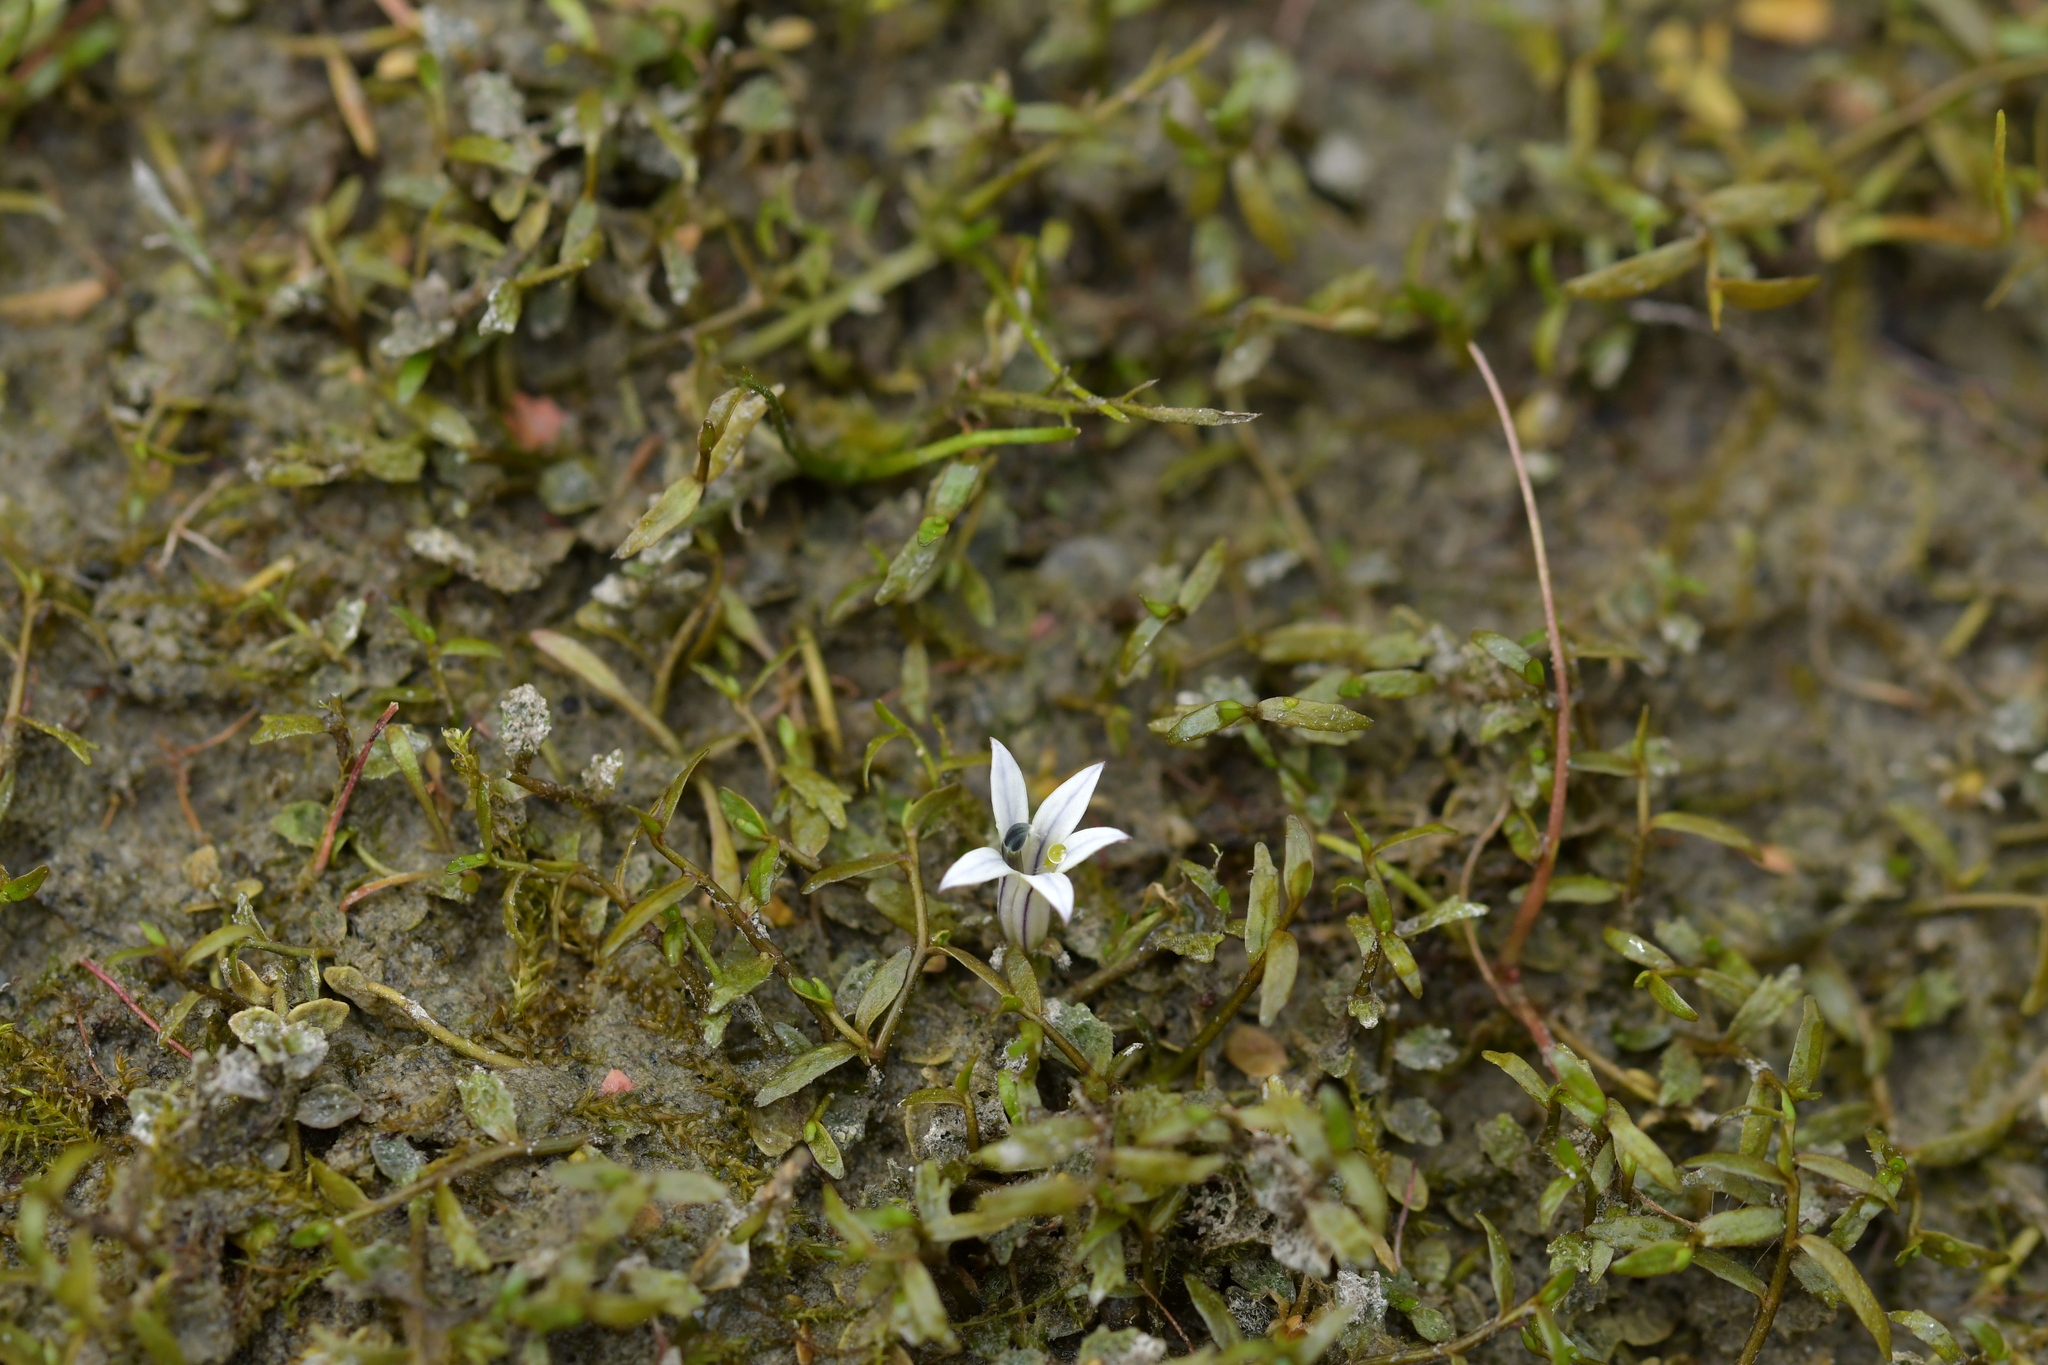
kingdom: Plantae
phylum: Tracheophyta
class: Magnoliopsida
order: Asterales
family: Campanulaceae
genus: Lobelia
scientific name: Lobelia perpusilla
